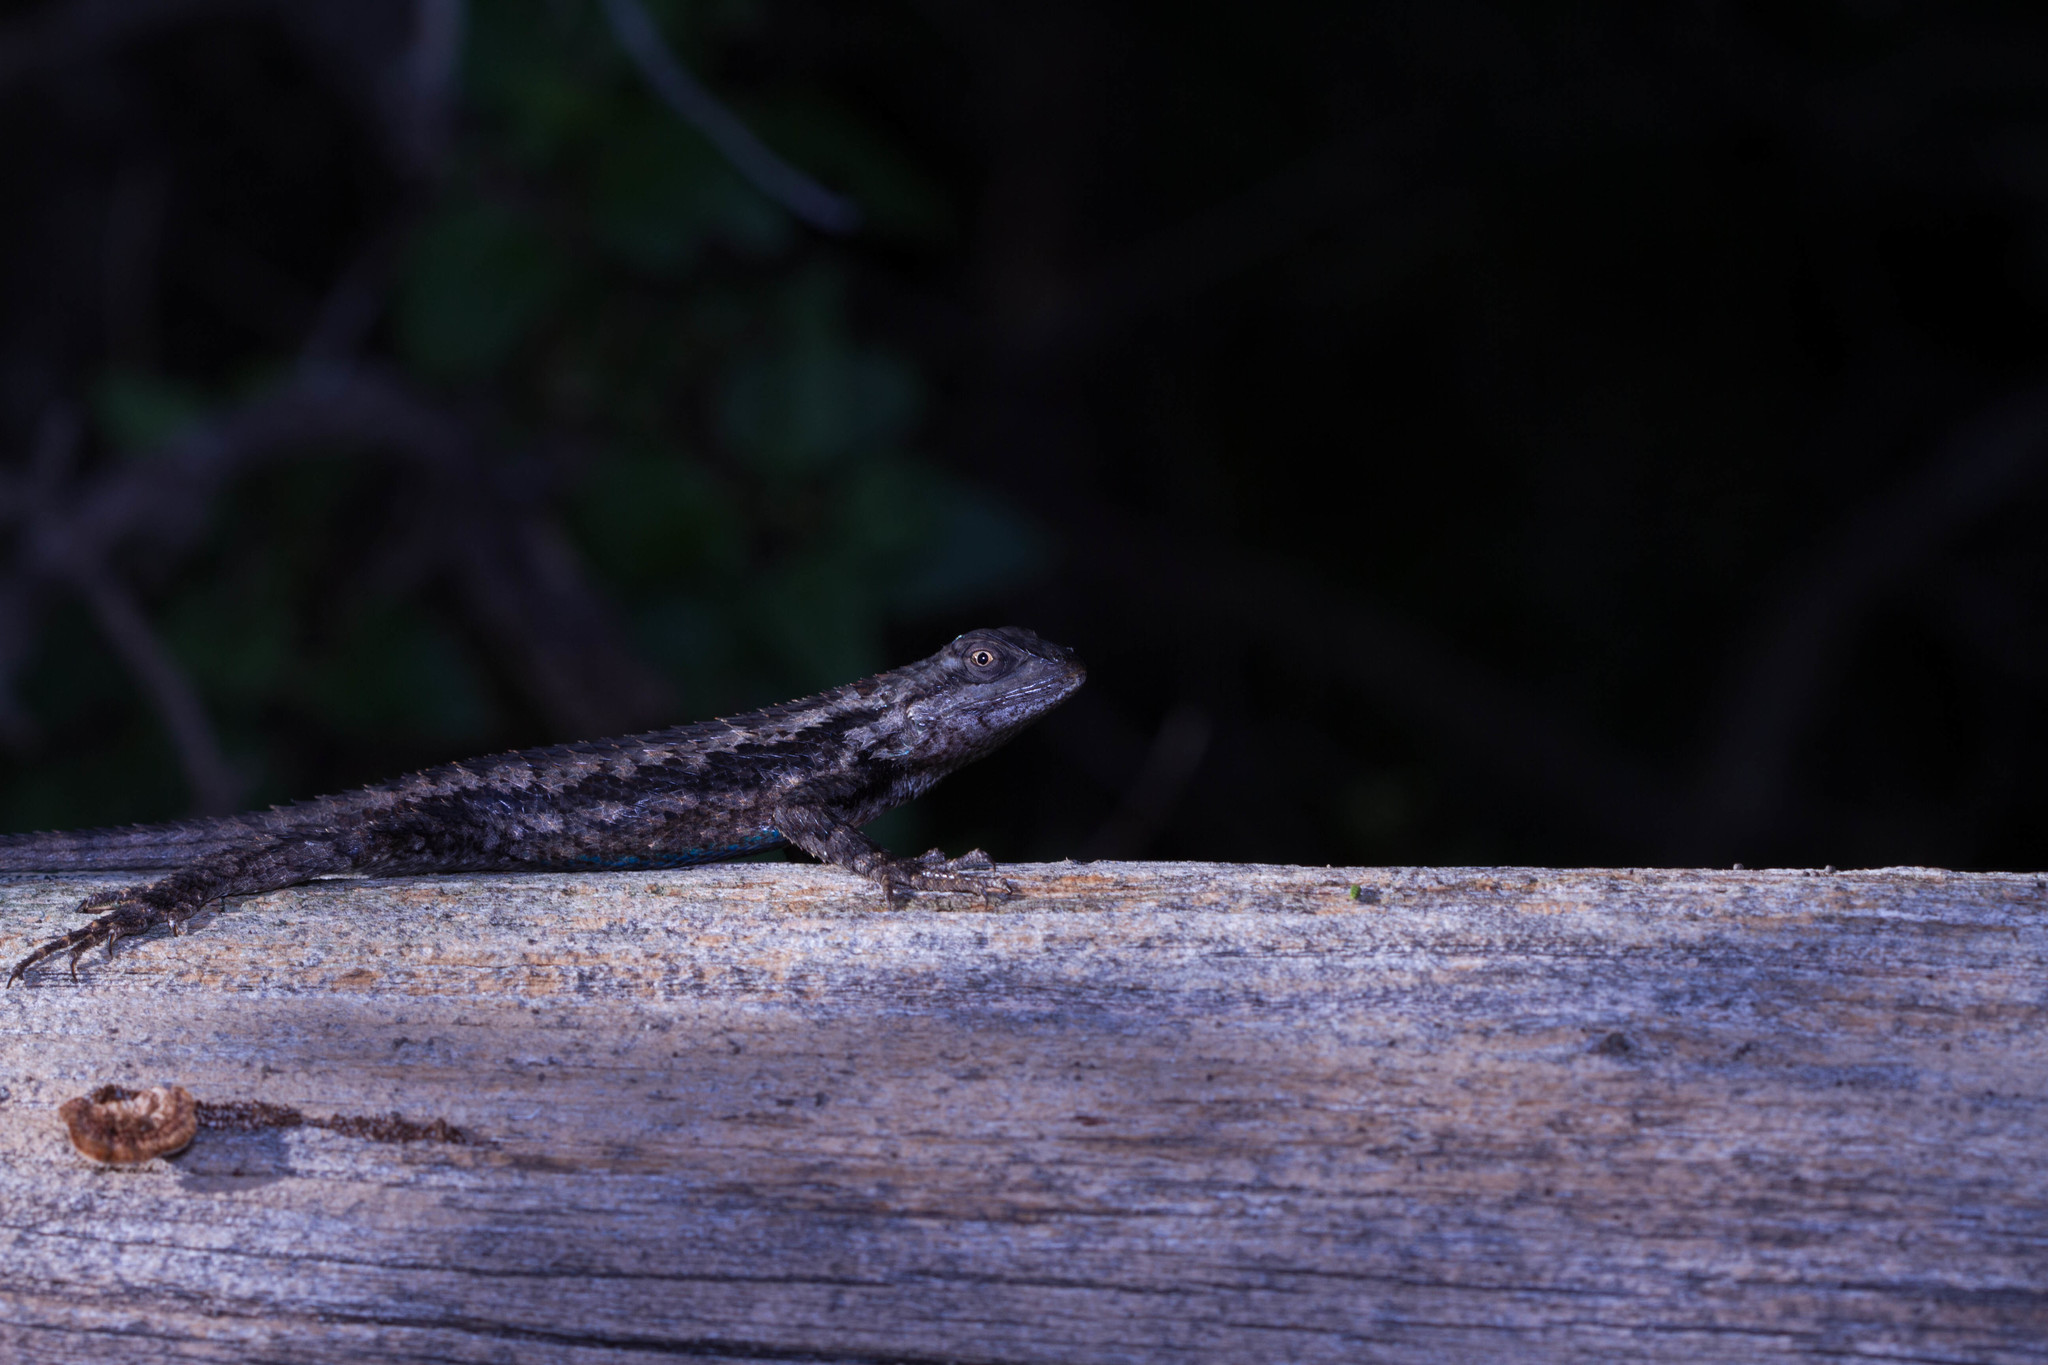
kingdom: Animalia
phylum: Chordata
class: Squamata
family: Phrynosomatidae
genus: Sceloporus
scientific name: Sceloporus olivaceus
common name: Texas spiny lizard
